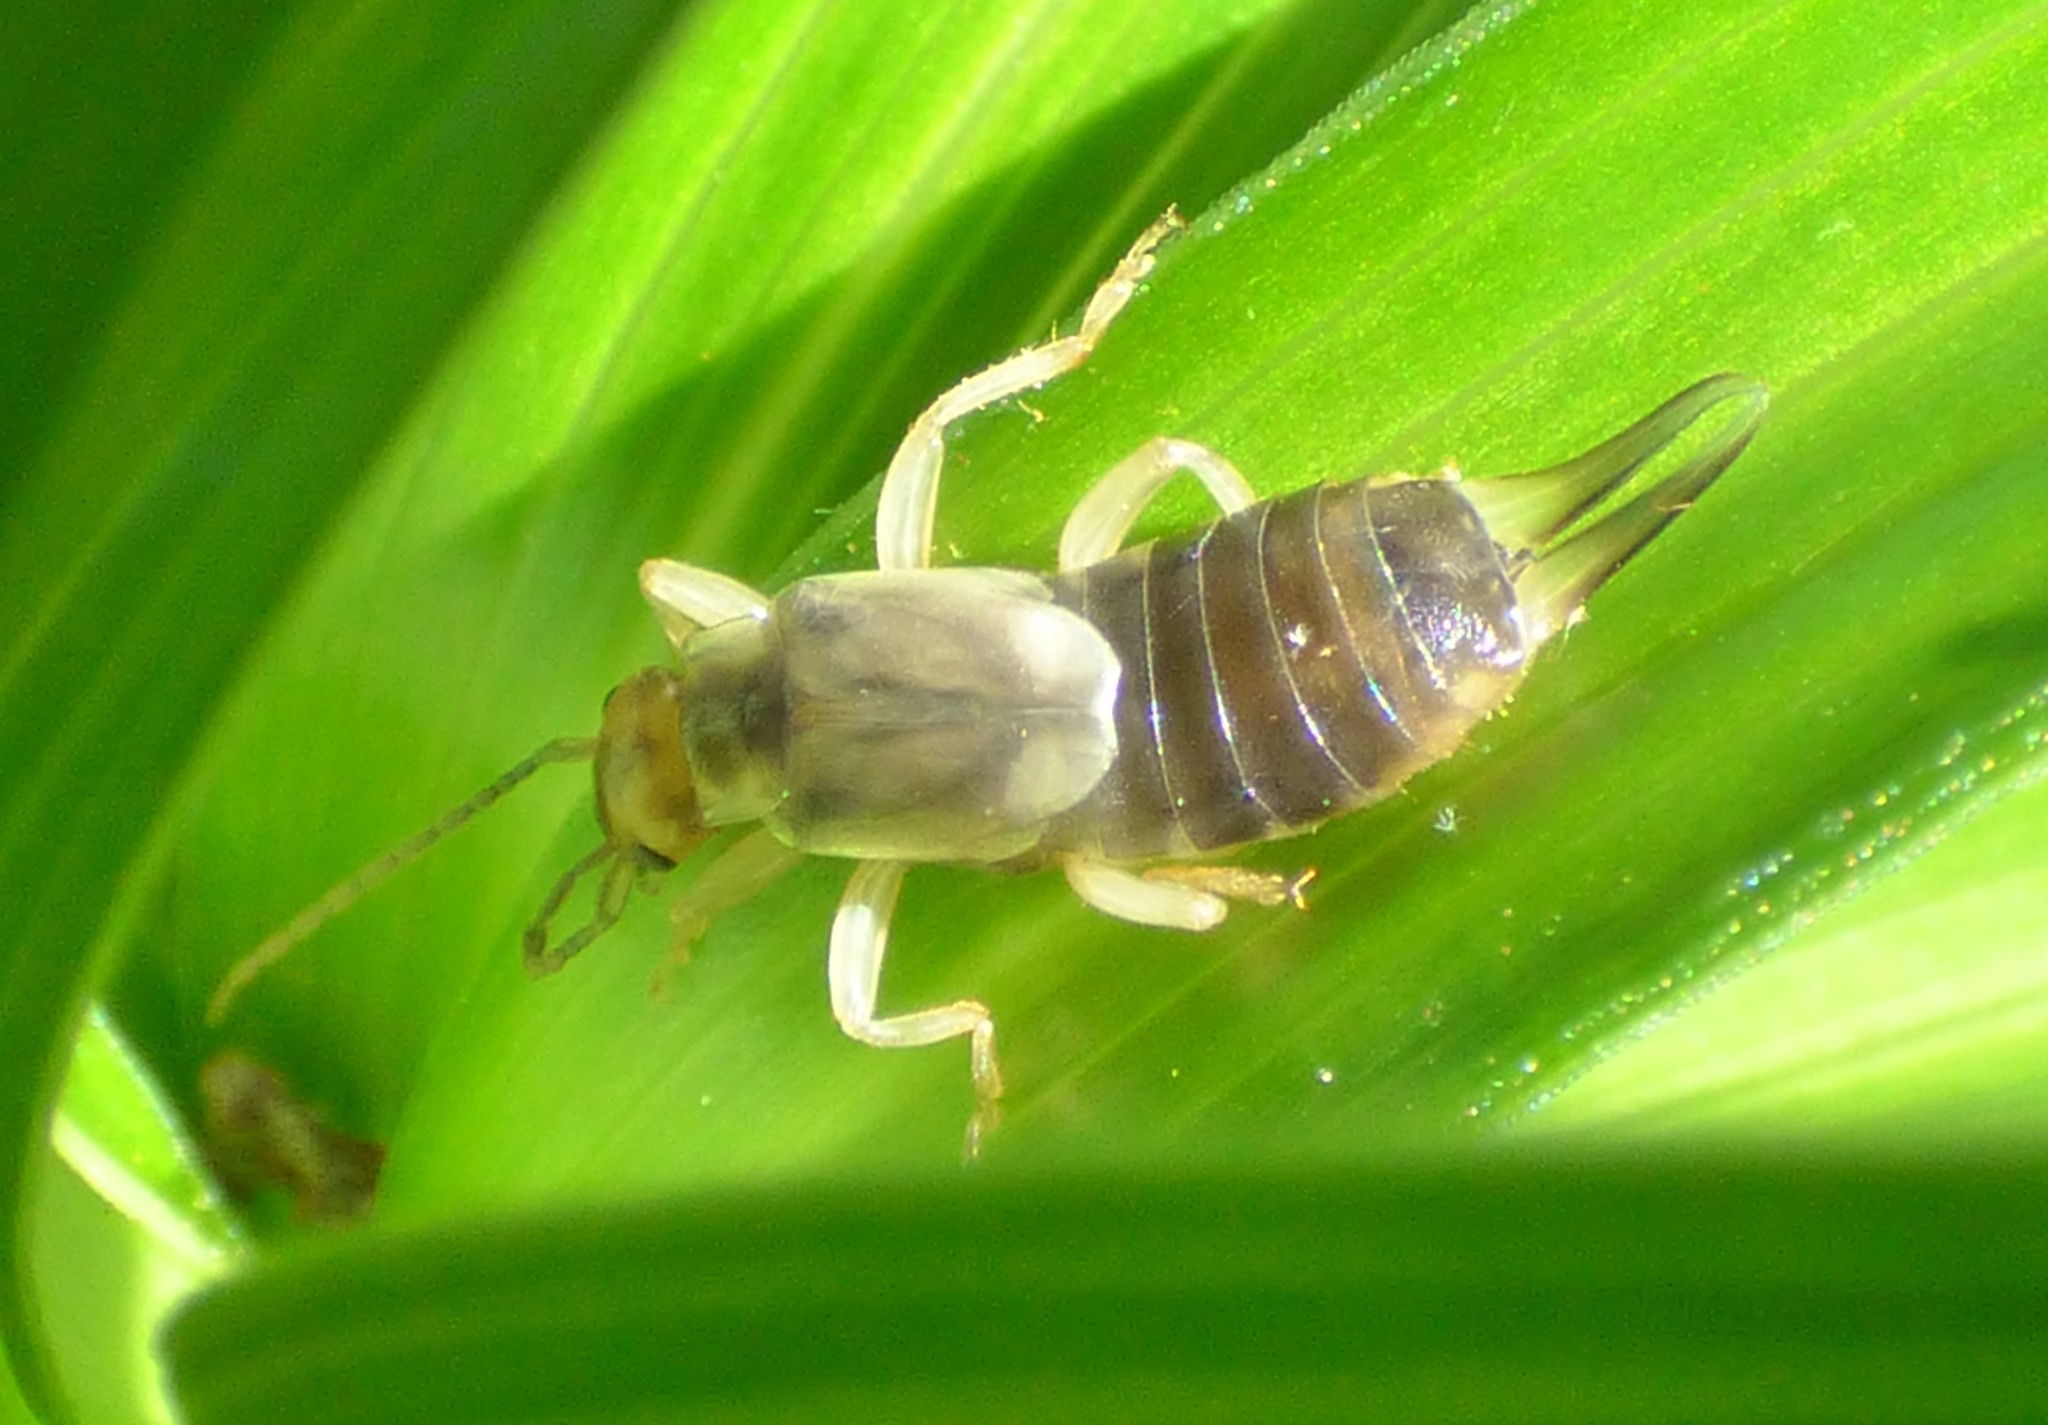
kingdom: Animalia
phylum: Arthropoda
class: Insecta
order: Dermaptera
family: Forficulidae
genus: Forficula
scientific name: Forficula
